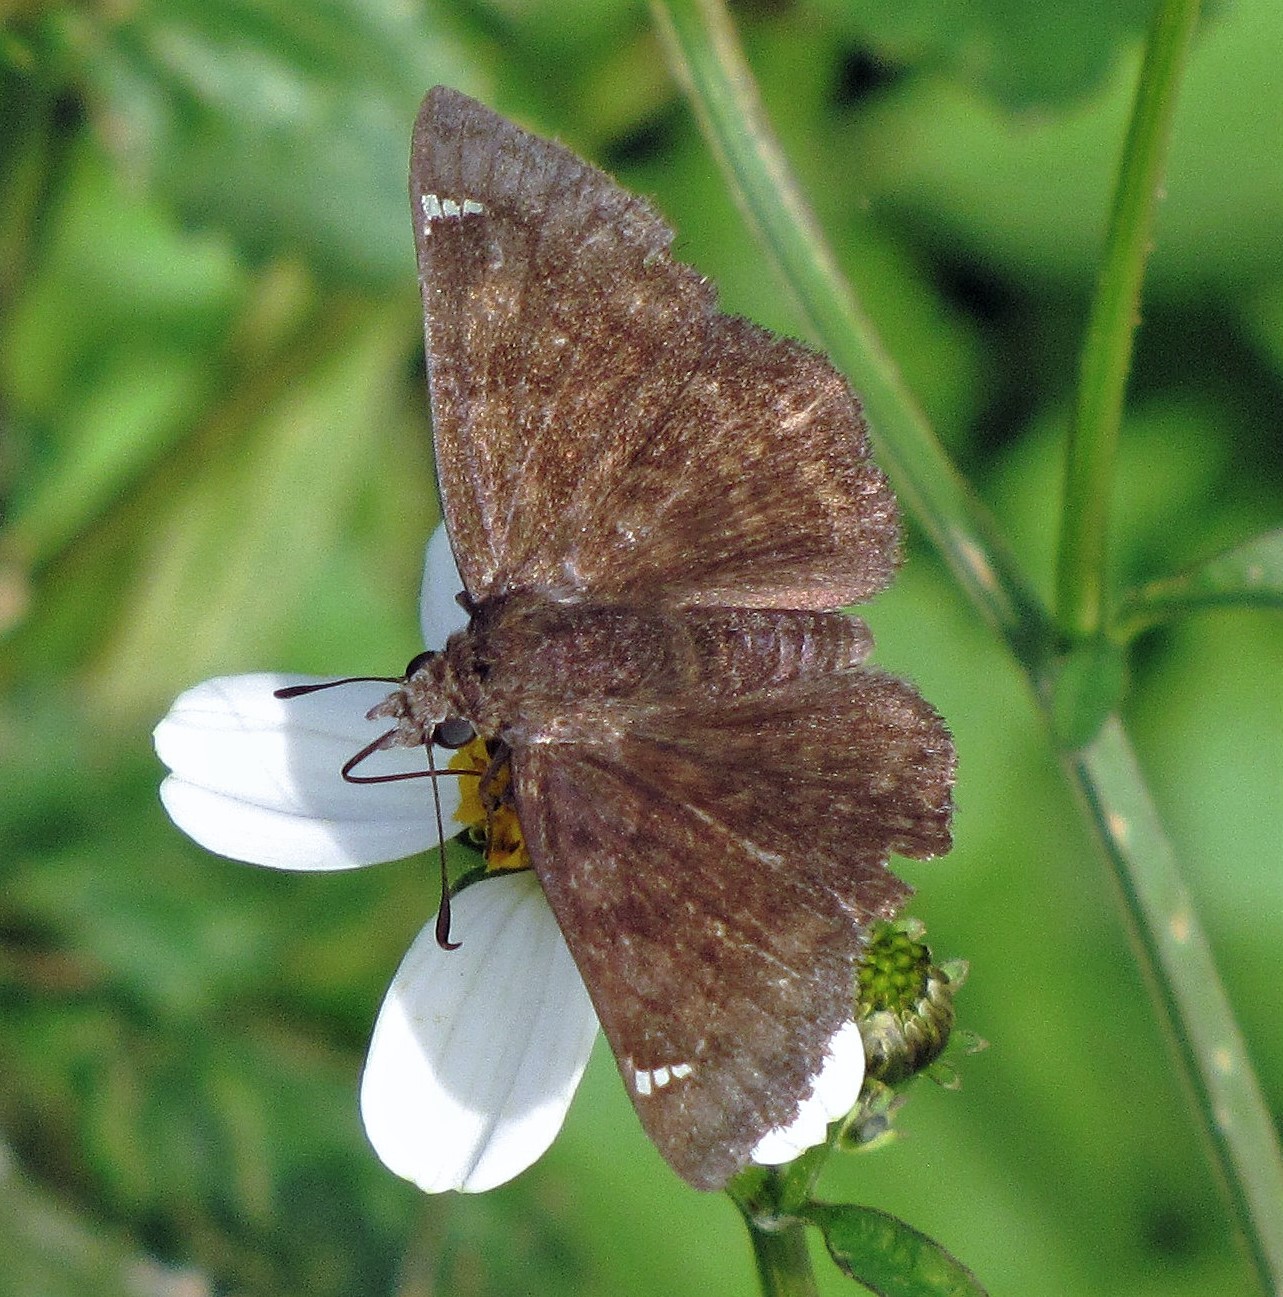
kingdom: Animalia
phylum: Arthropoda
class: Insecta
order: Lepidoptera
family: Hesperiidae
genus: Nisoniades
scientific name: Nisoniades haywardi
